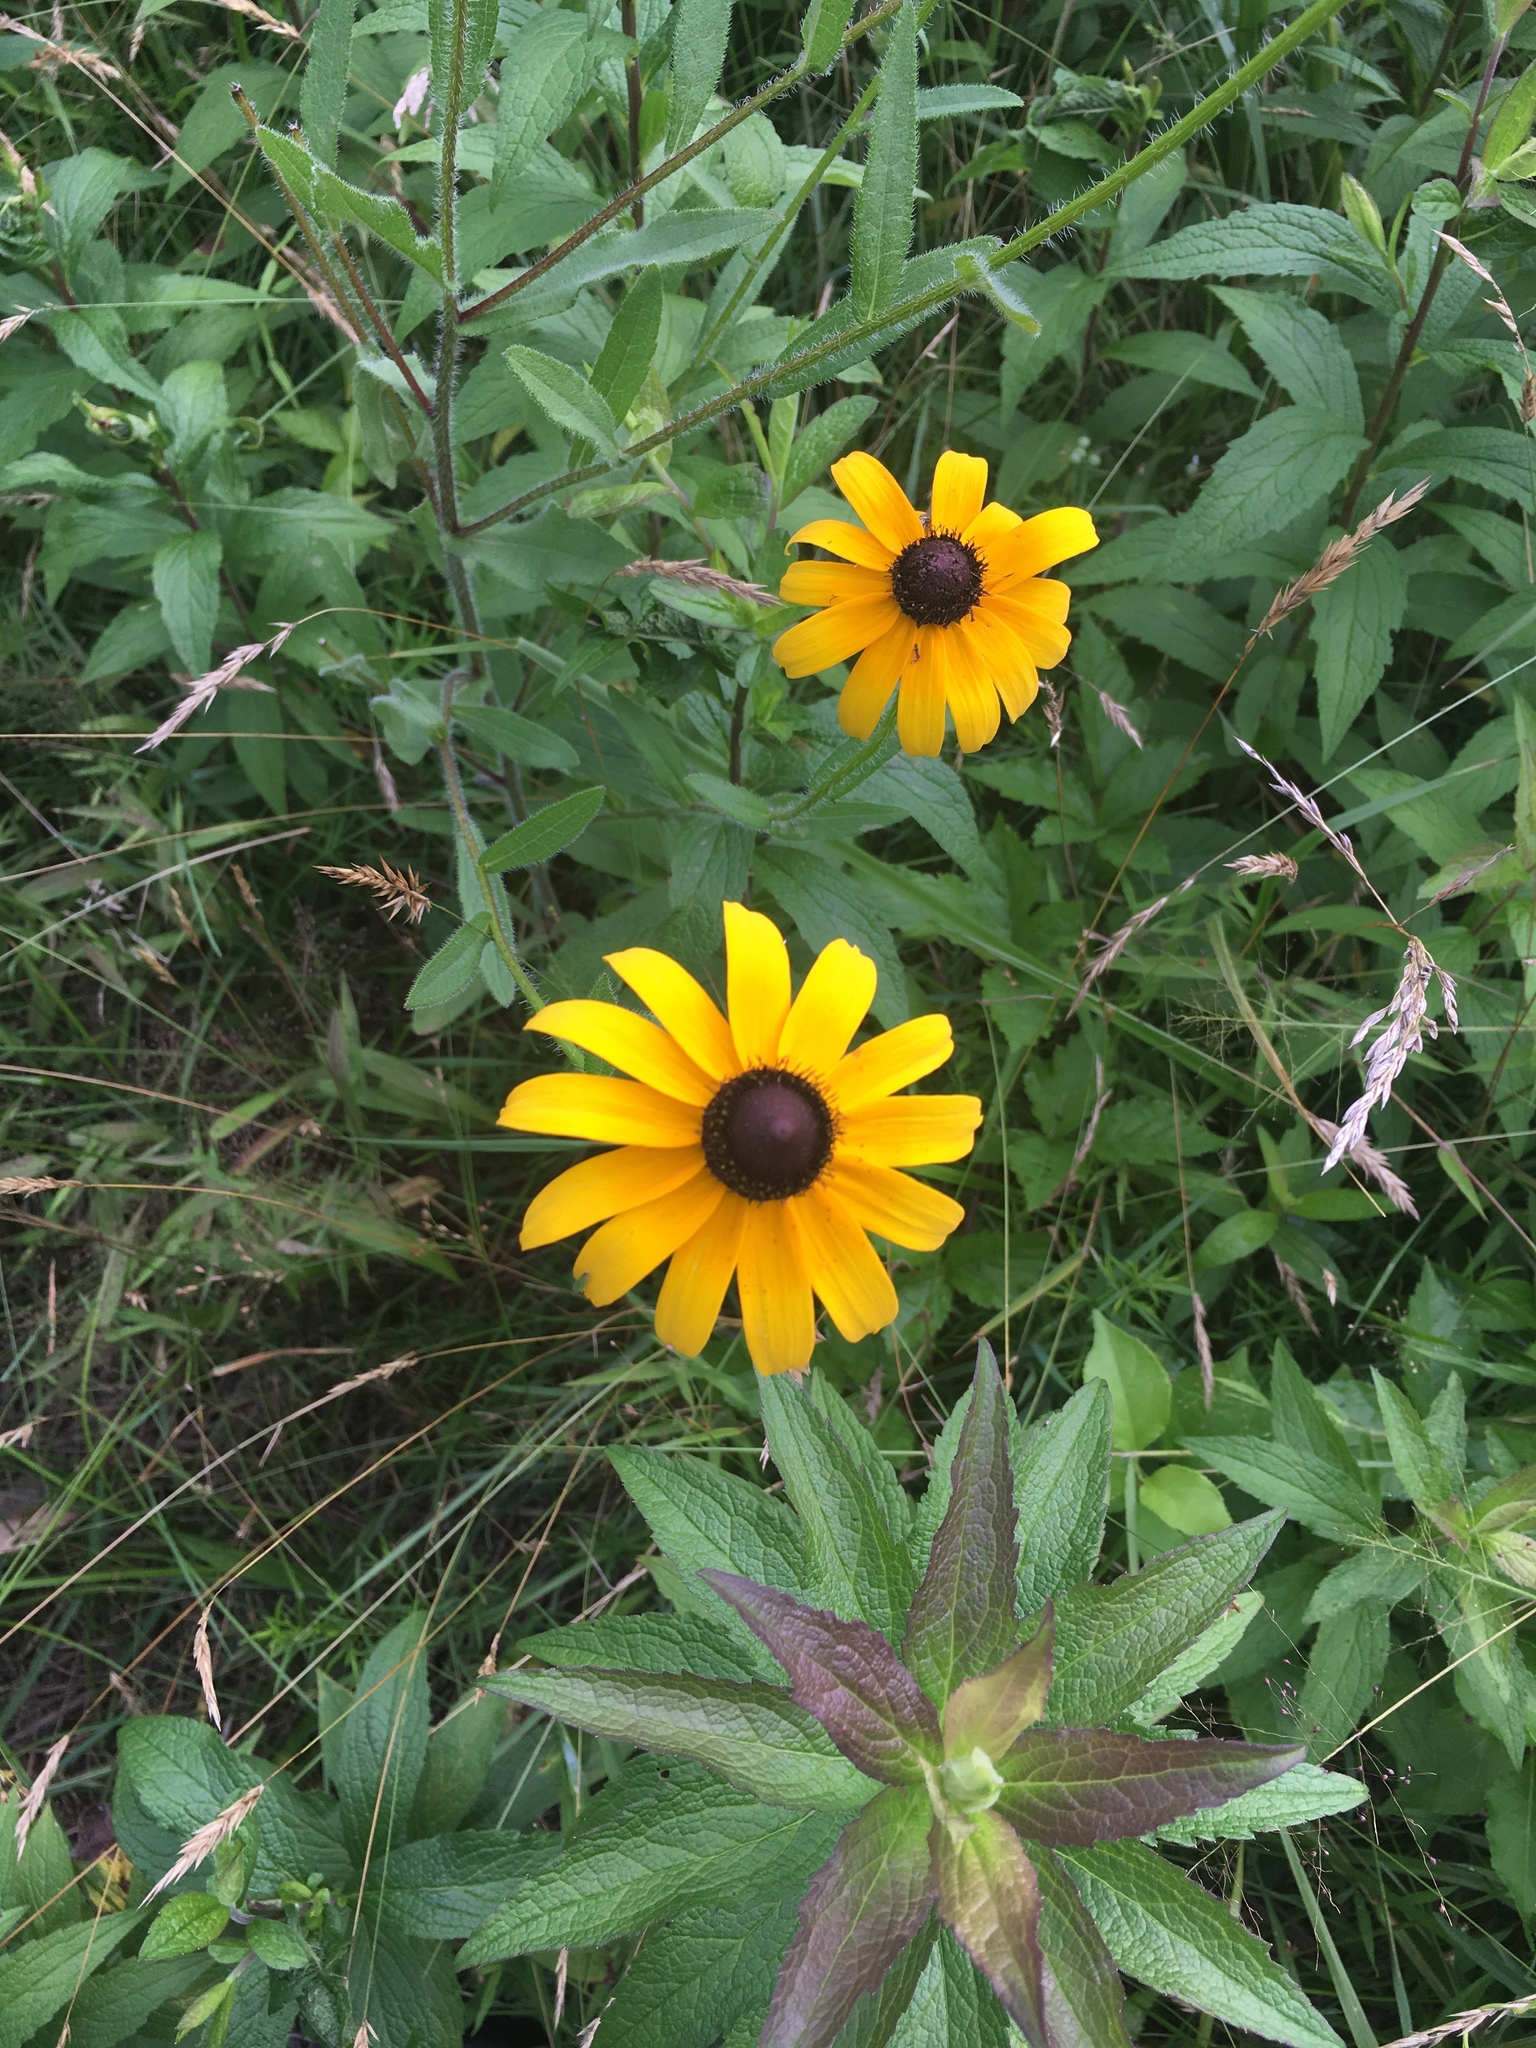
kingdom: Plantae
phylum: Tracheophyta
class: Magnoliopsida
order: Asterales
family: Asteraceae
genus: Rudbeckia
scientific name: Rudbeckia hirta
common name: Black-eyed-susan
